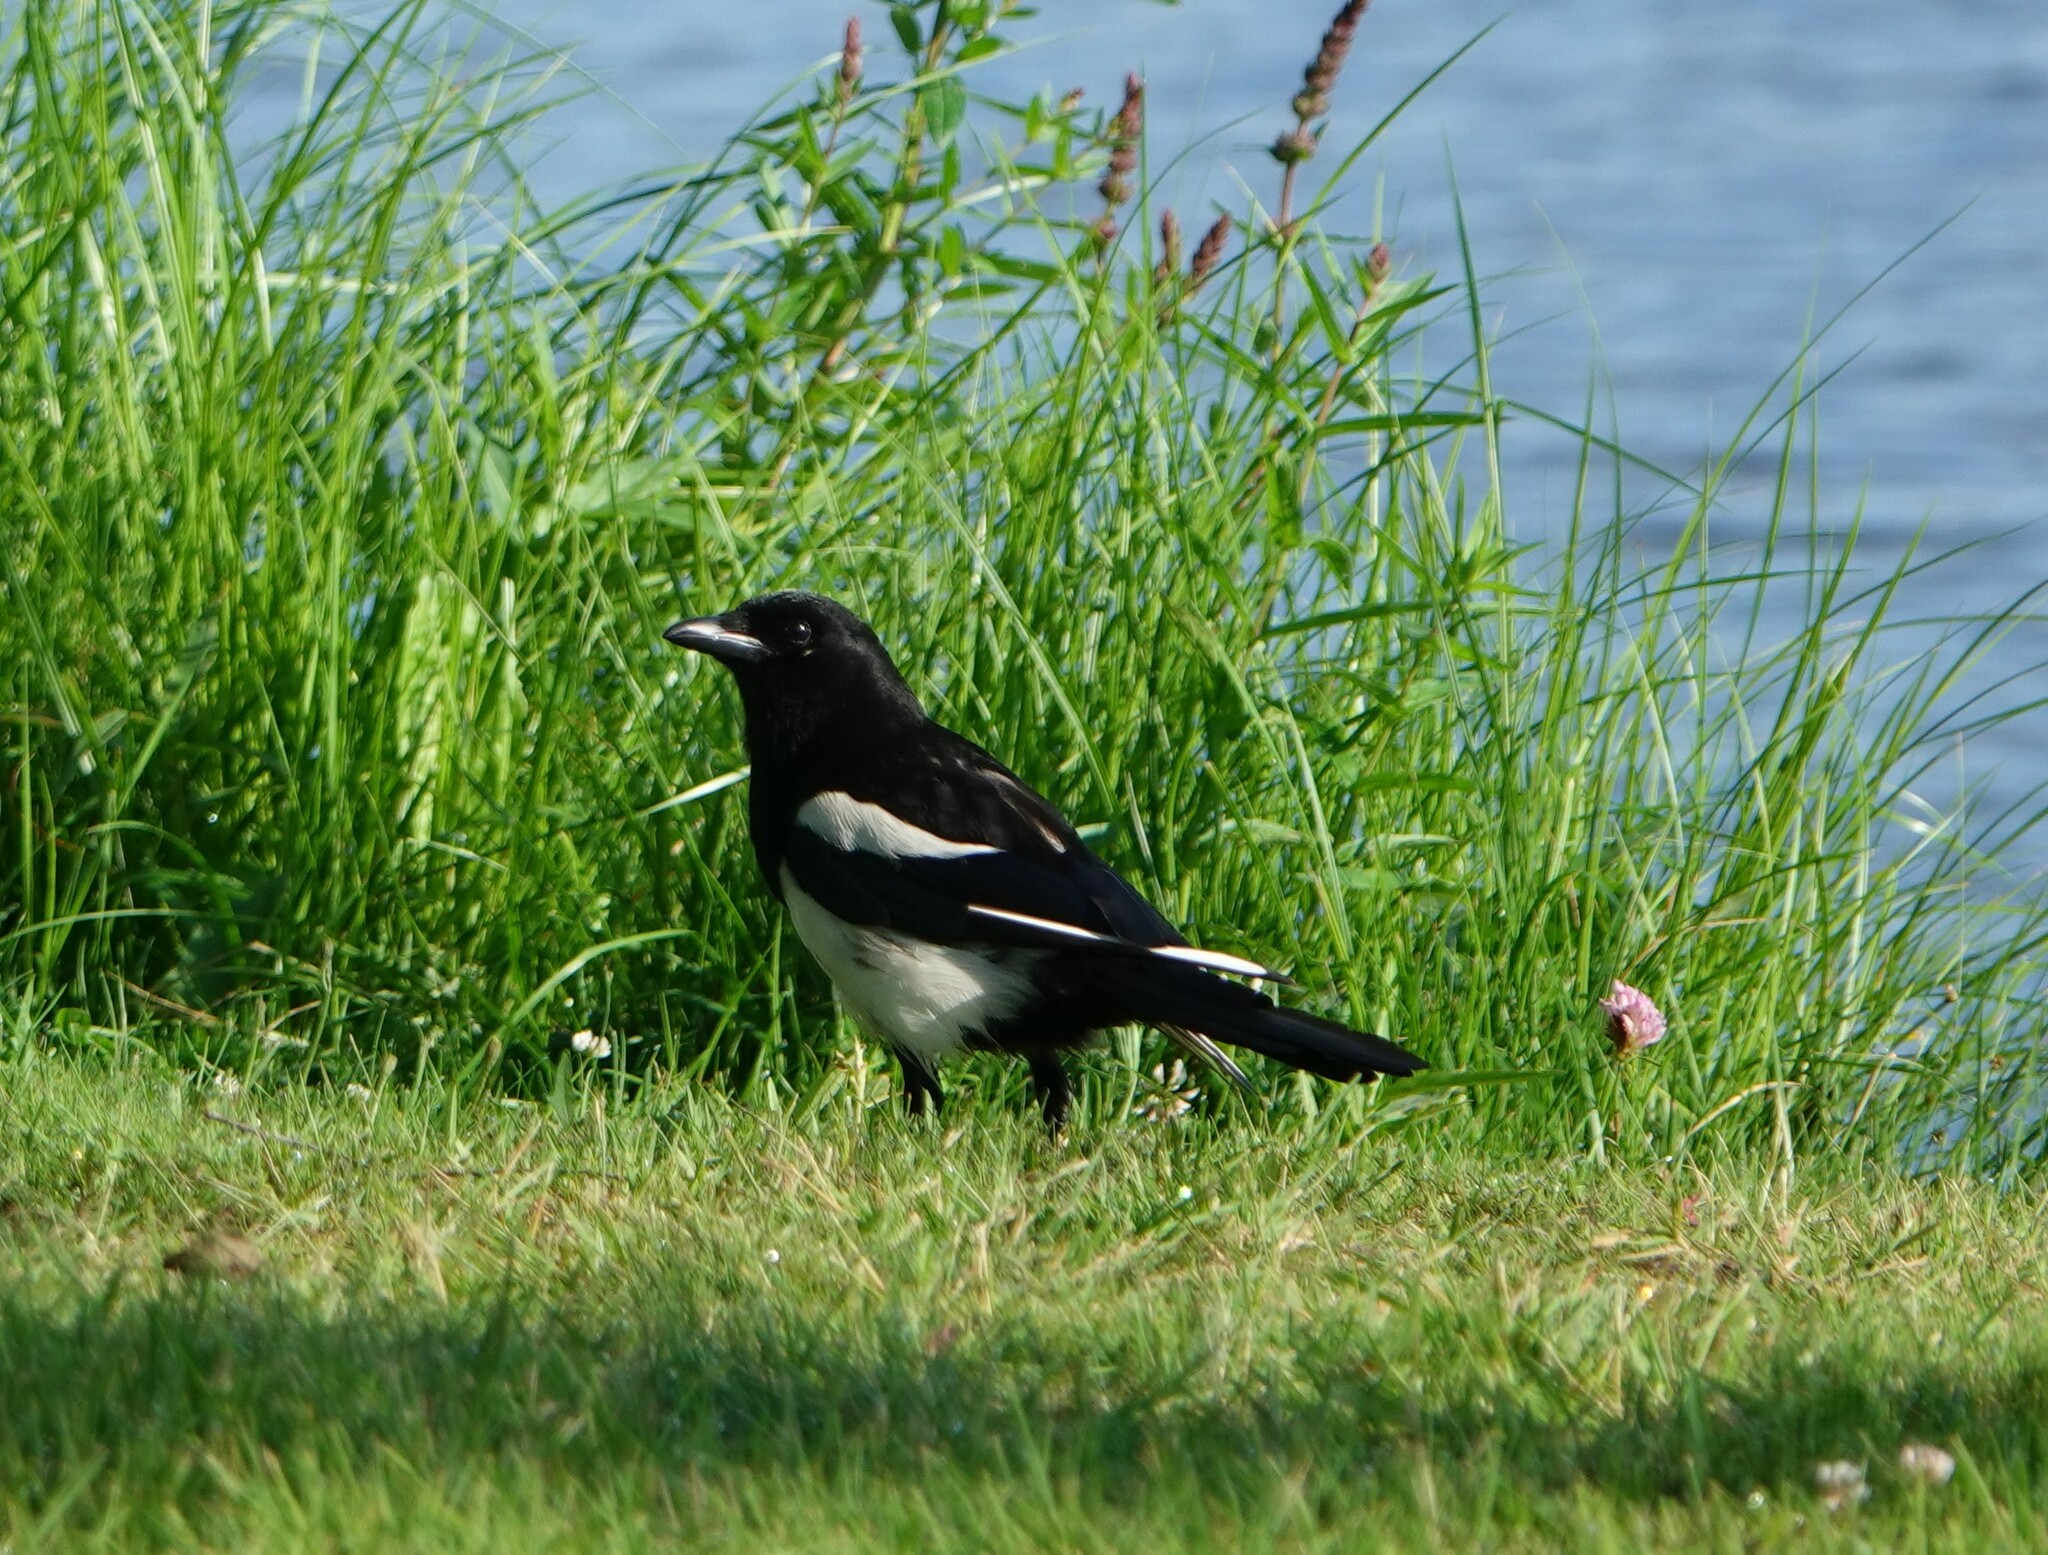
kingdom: Animalia
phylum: Chordata
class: Aves
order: Passeriformes
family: Corvidae
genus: Pica
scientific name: Pica pica
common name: Eurasian magpie
